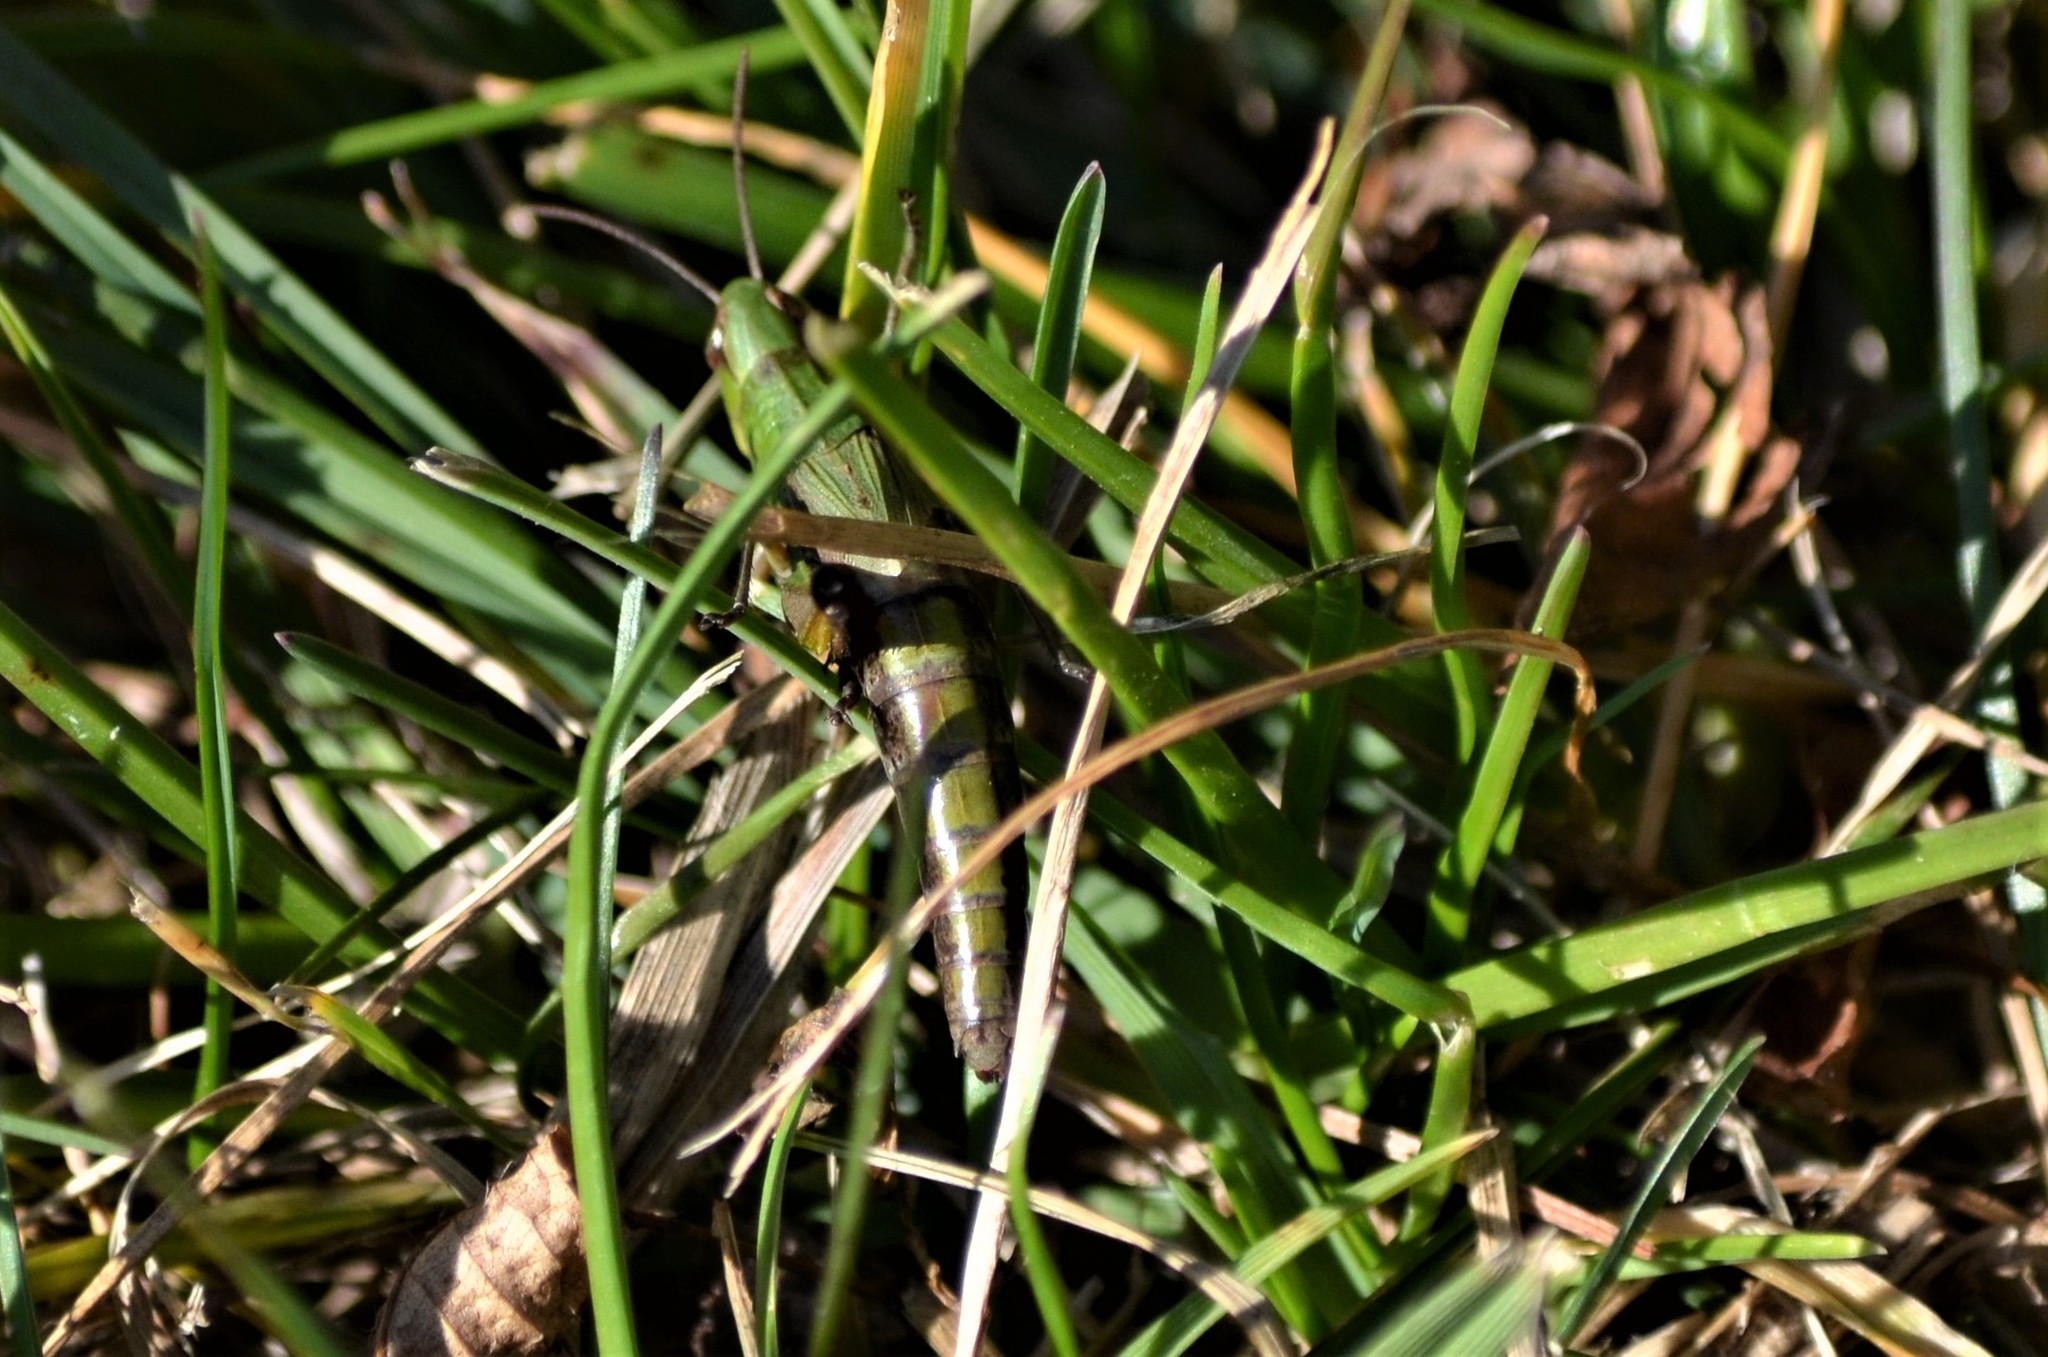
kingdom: Animalia
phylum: Arthropoda
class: Insecta
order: Orthoptera
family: Acrididae
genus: Pseudochorthippus
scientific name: Pseudochorthippus parallelus
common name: Meadow grasshopper
